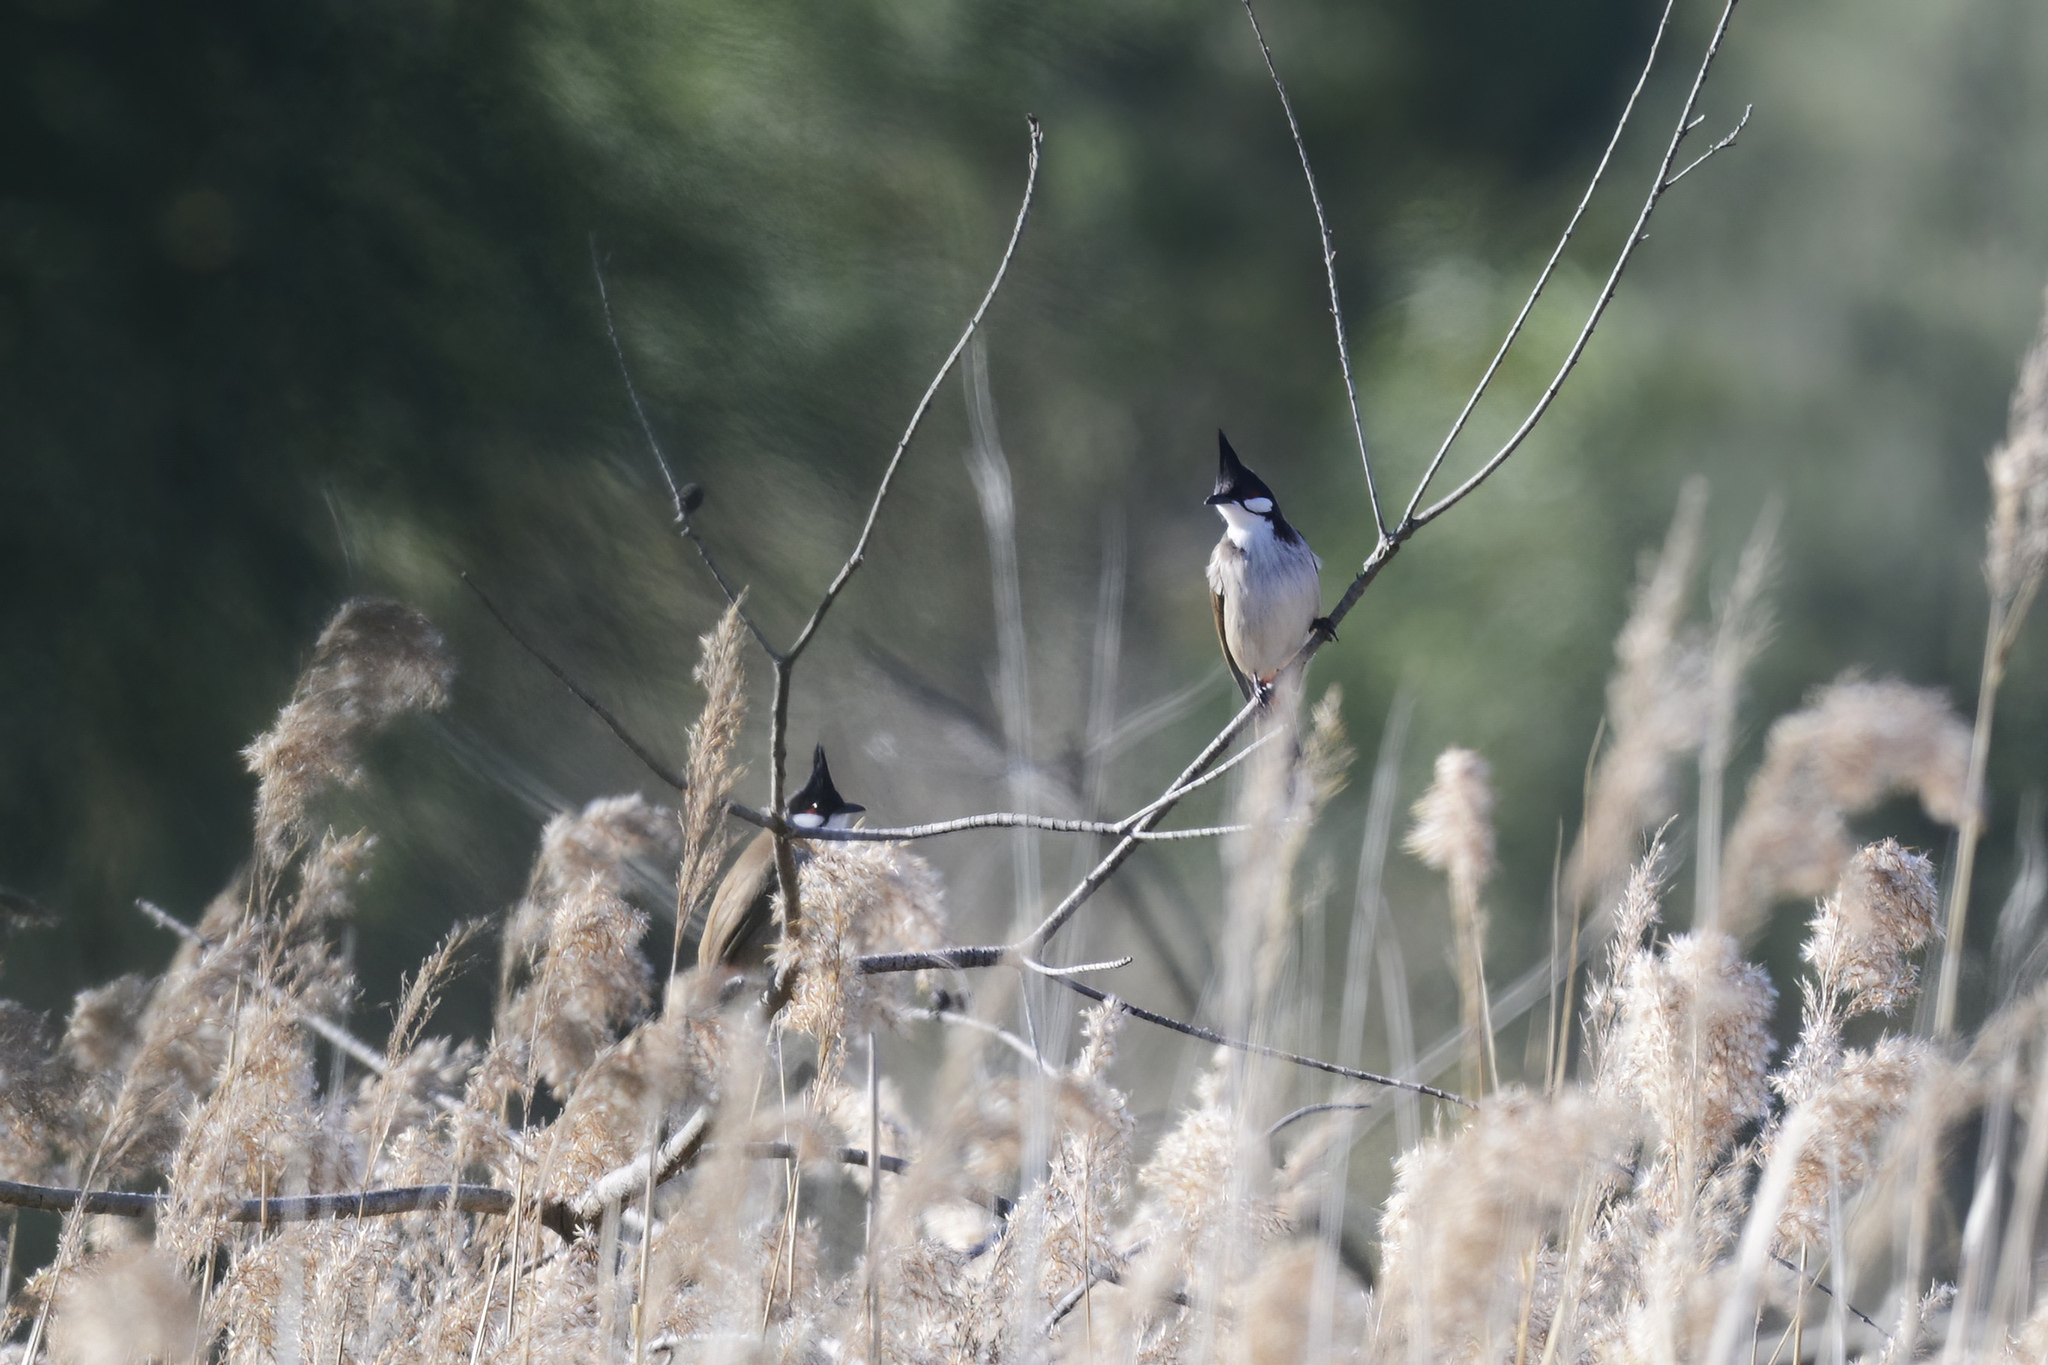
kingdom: Animalia
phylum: Chordata
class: Aves
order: Passeriformes
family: Pycnonotidae
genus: Pycnonotus
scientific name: Pycnonotus jocosus
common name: Red-whiskered bulbul
